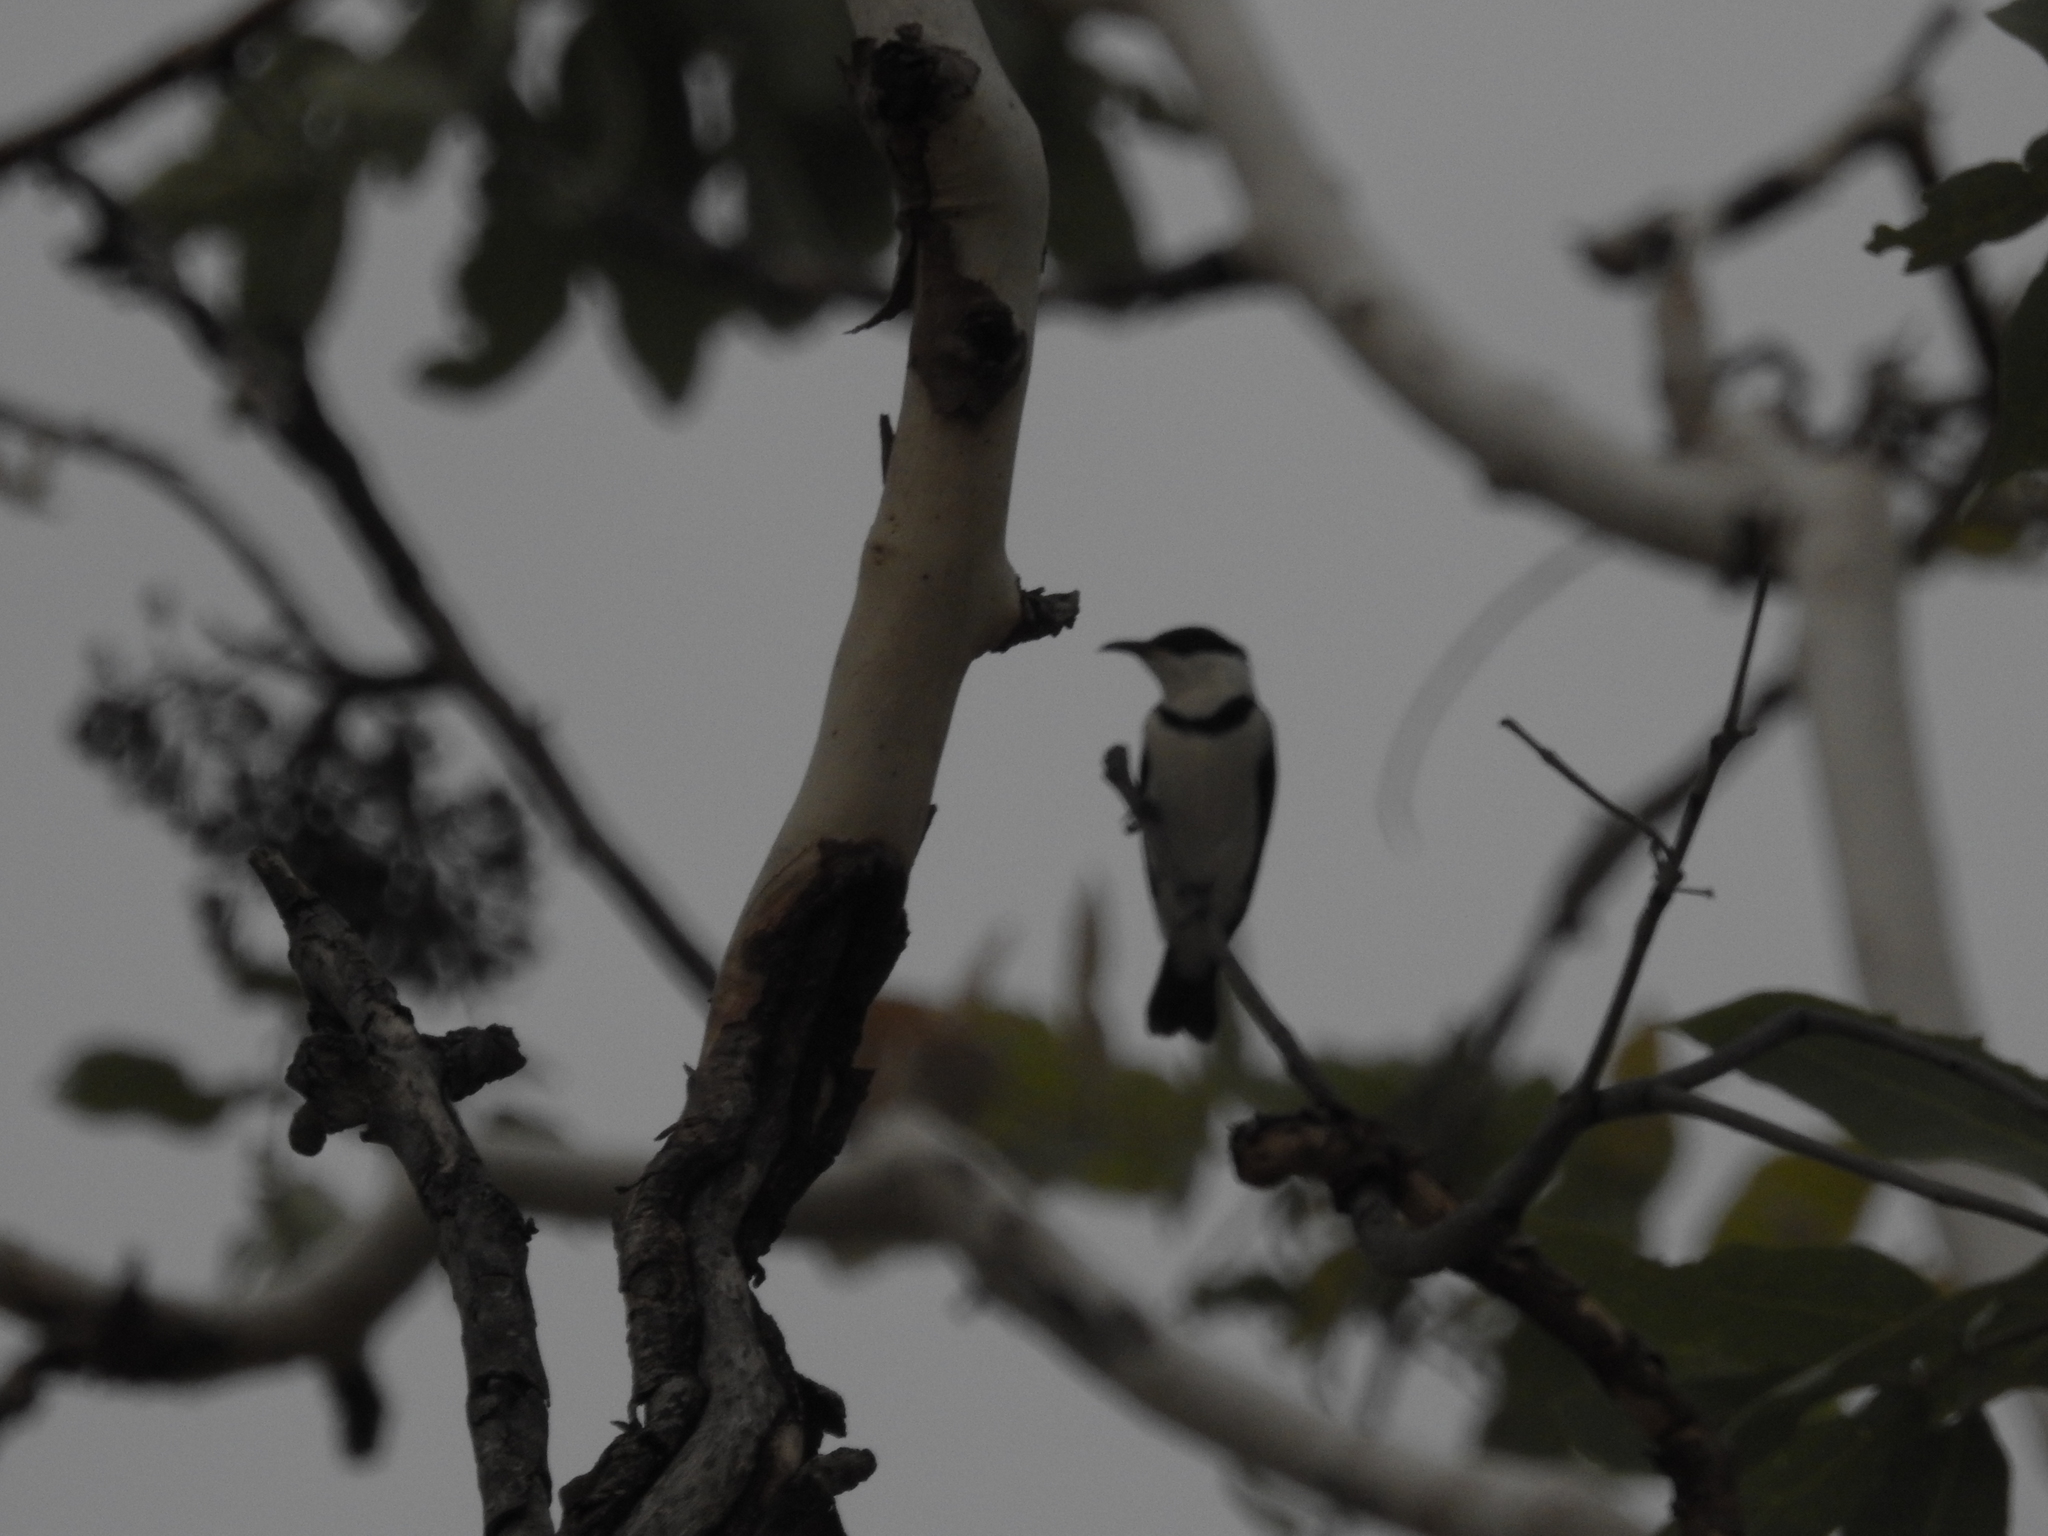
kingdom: Animalia
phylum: Chordata
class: Aves
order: Passeriformes
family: Meliphagidae
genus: Cissomela
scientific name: Cissomela pectoralis
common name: Banded honeyeater
